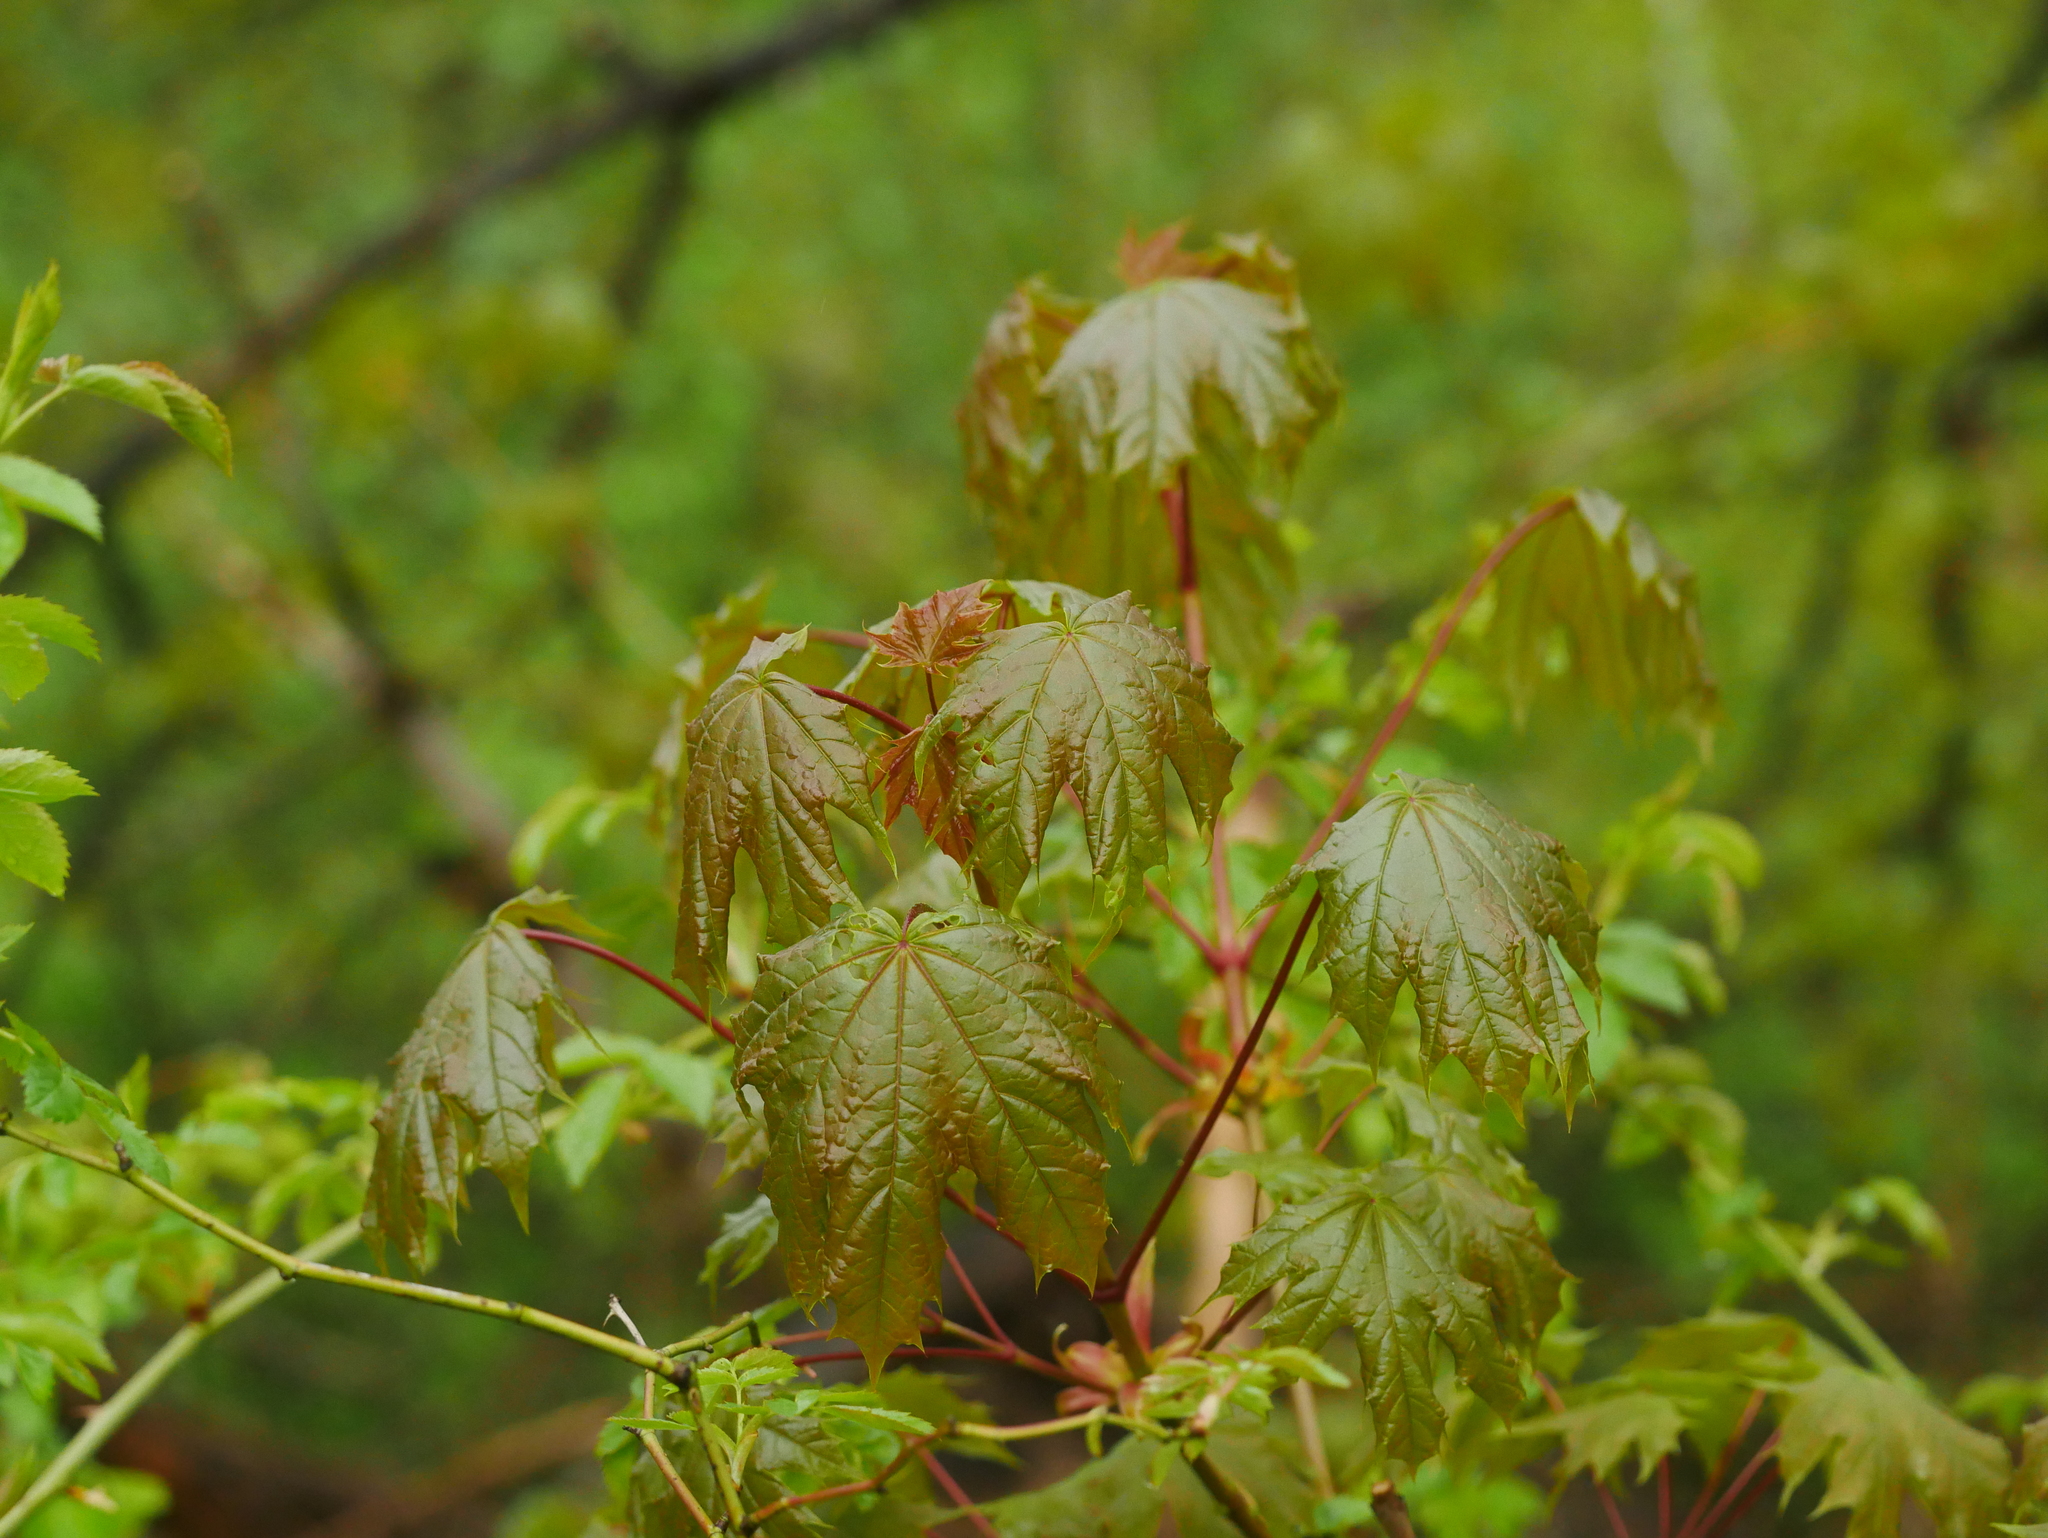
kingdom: Plantae
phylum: Tracheophyta
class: Magnoliopsida
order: Sapindales
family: Sapindaceae
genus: Acer
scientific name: Acer platanoides
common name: Norway maple
